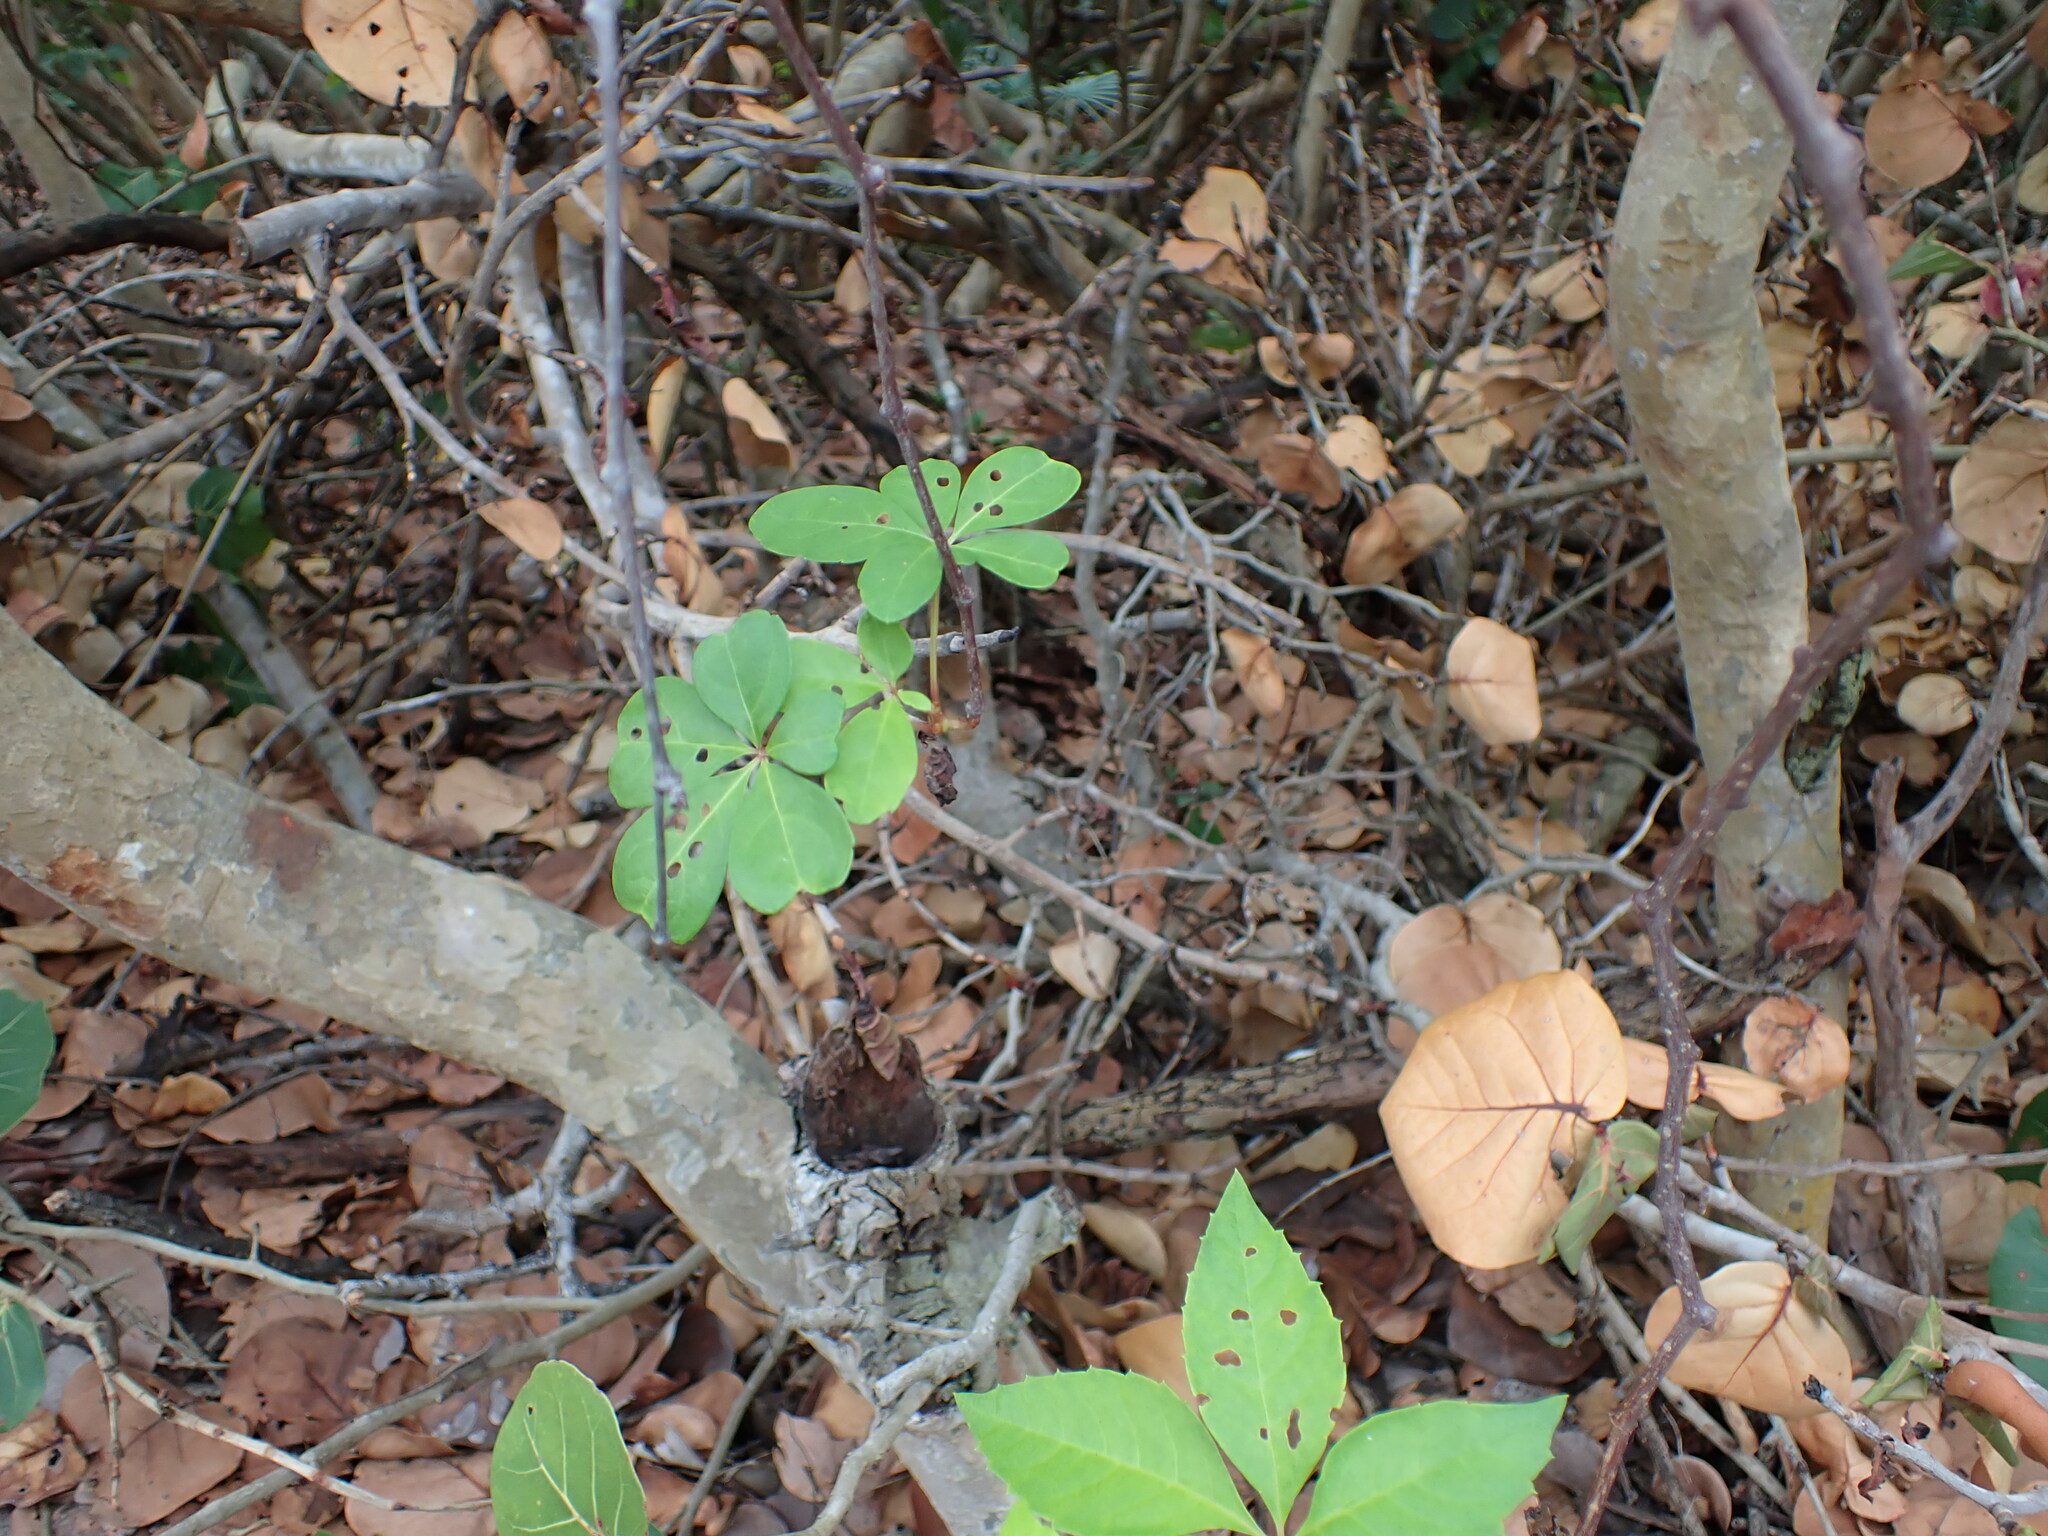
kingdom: Plantae
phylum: Tracheophyta
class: Magnoliopsida
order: Vitales
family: Vitaceae
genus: Parthenocissus
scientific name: Parthenocissus quinquefolia
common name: Virginia-creeper
